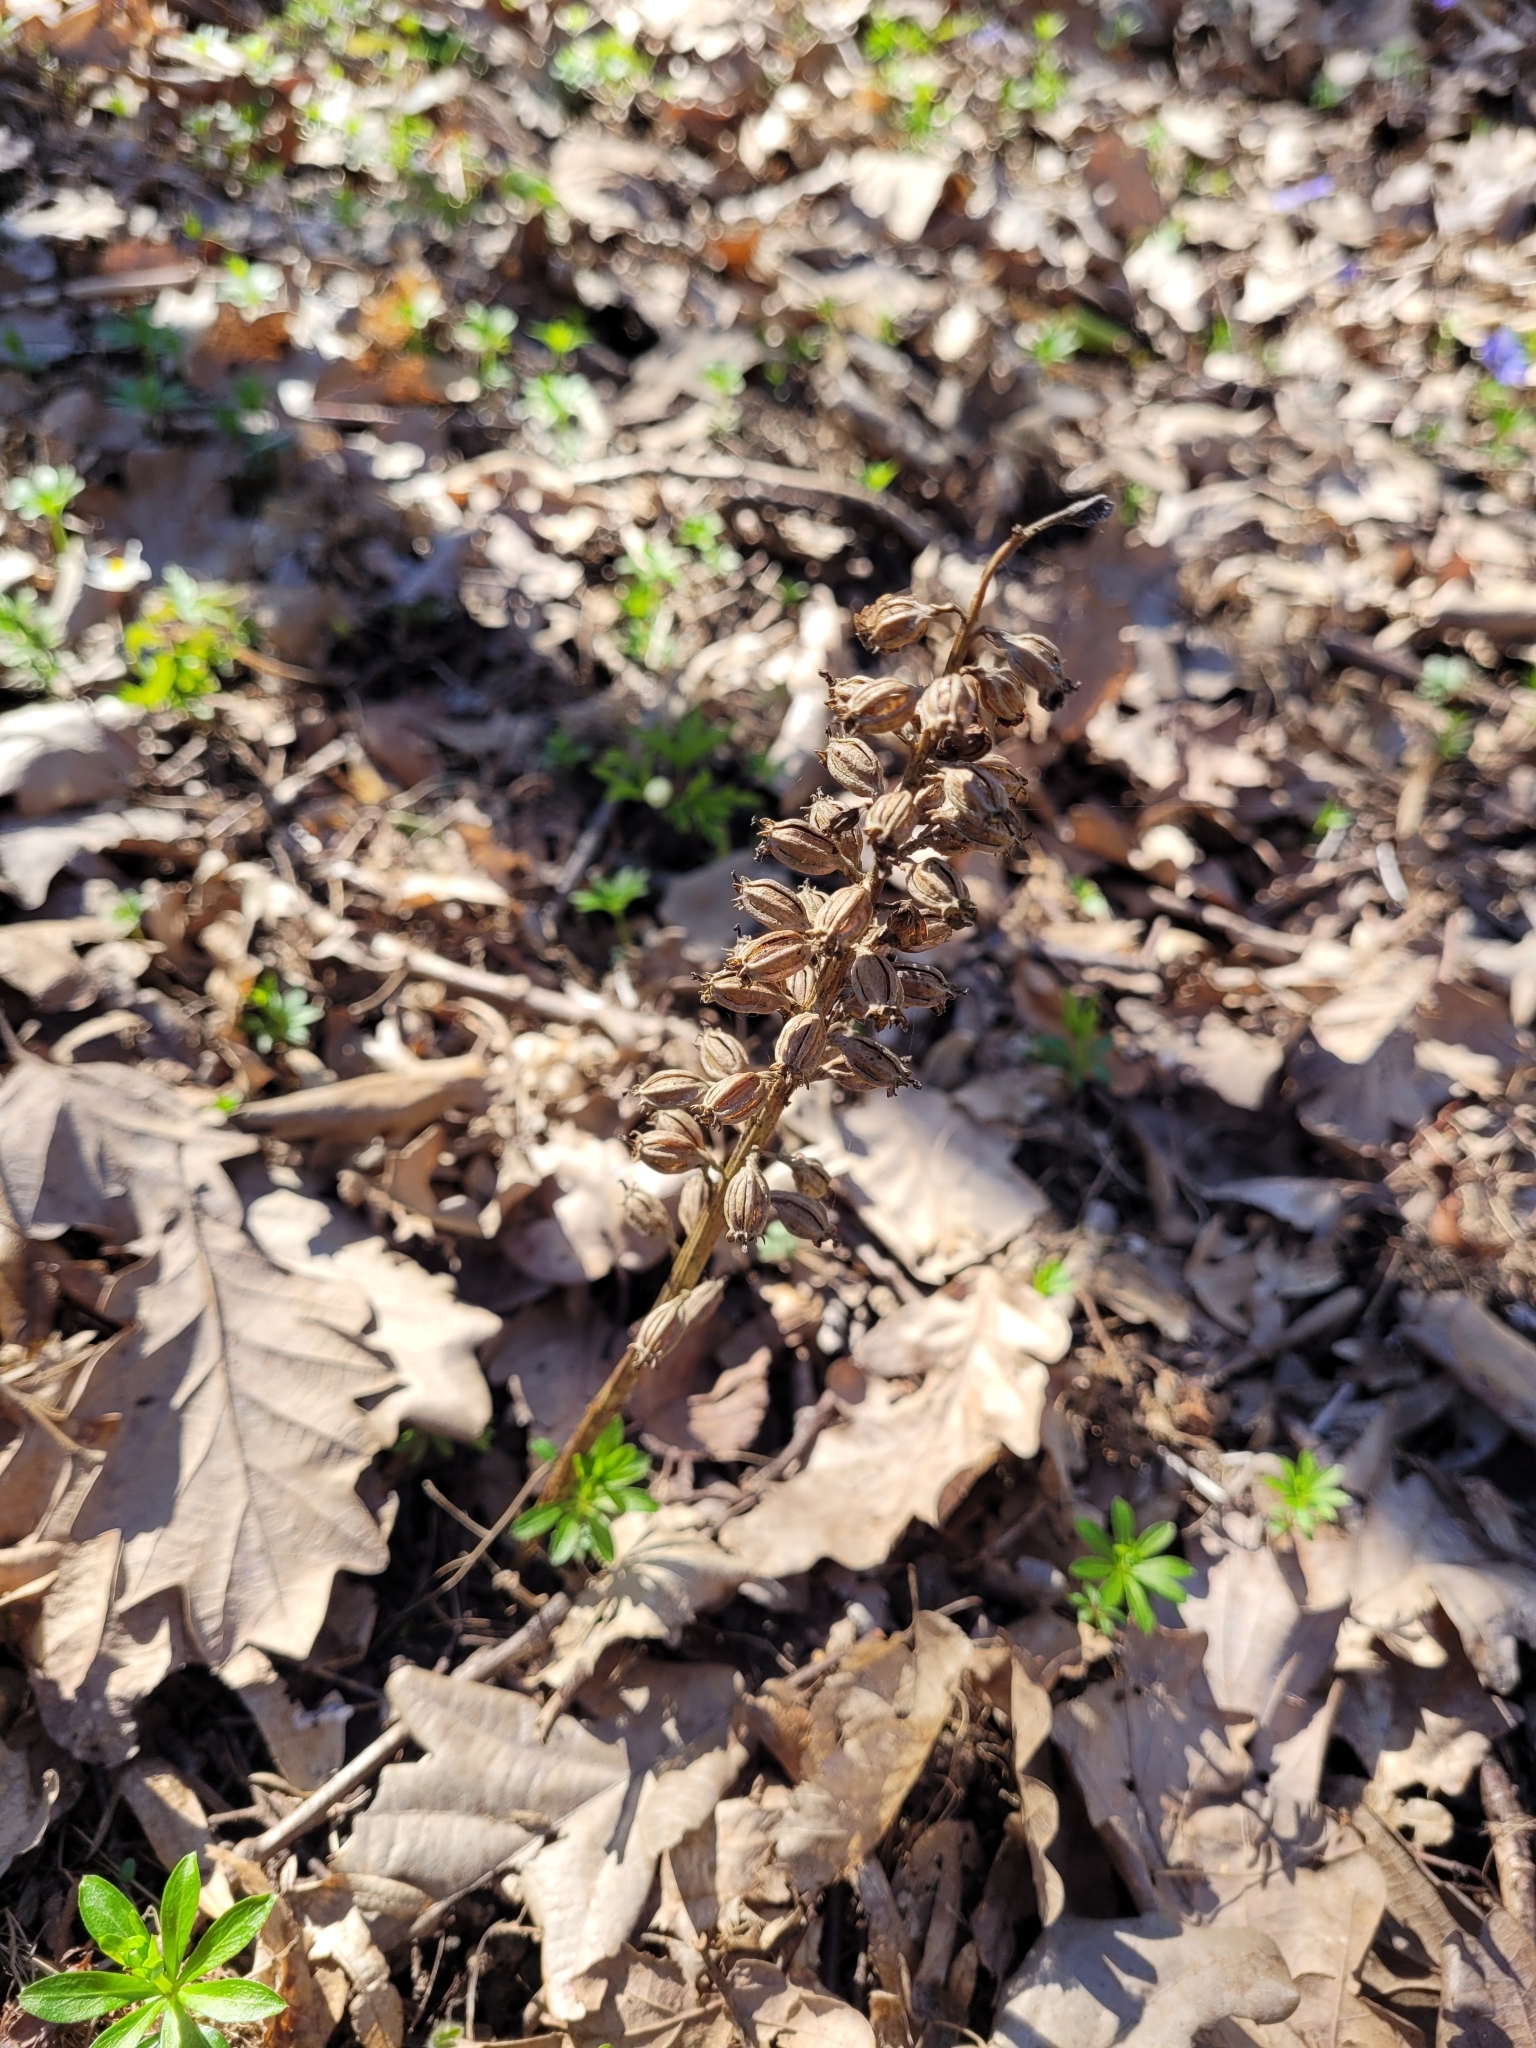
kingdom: Plantae
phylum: Tracheophyta
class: Liliopsida
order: Asparagales
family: Orchidaceae
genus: Neottia
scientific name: Neottia nidus-avis
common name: Bird's-nest orchid
